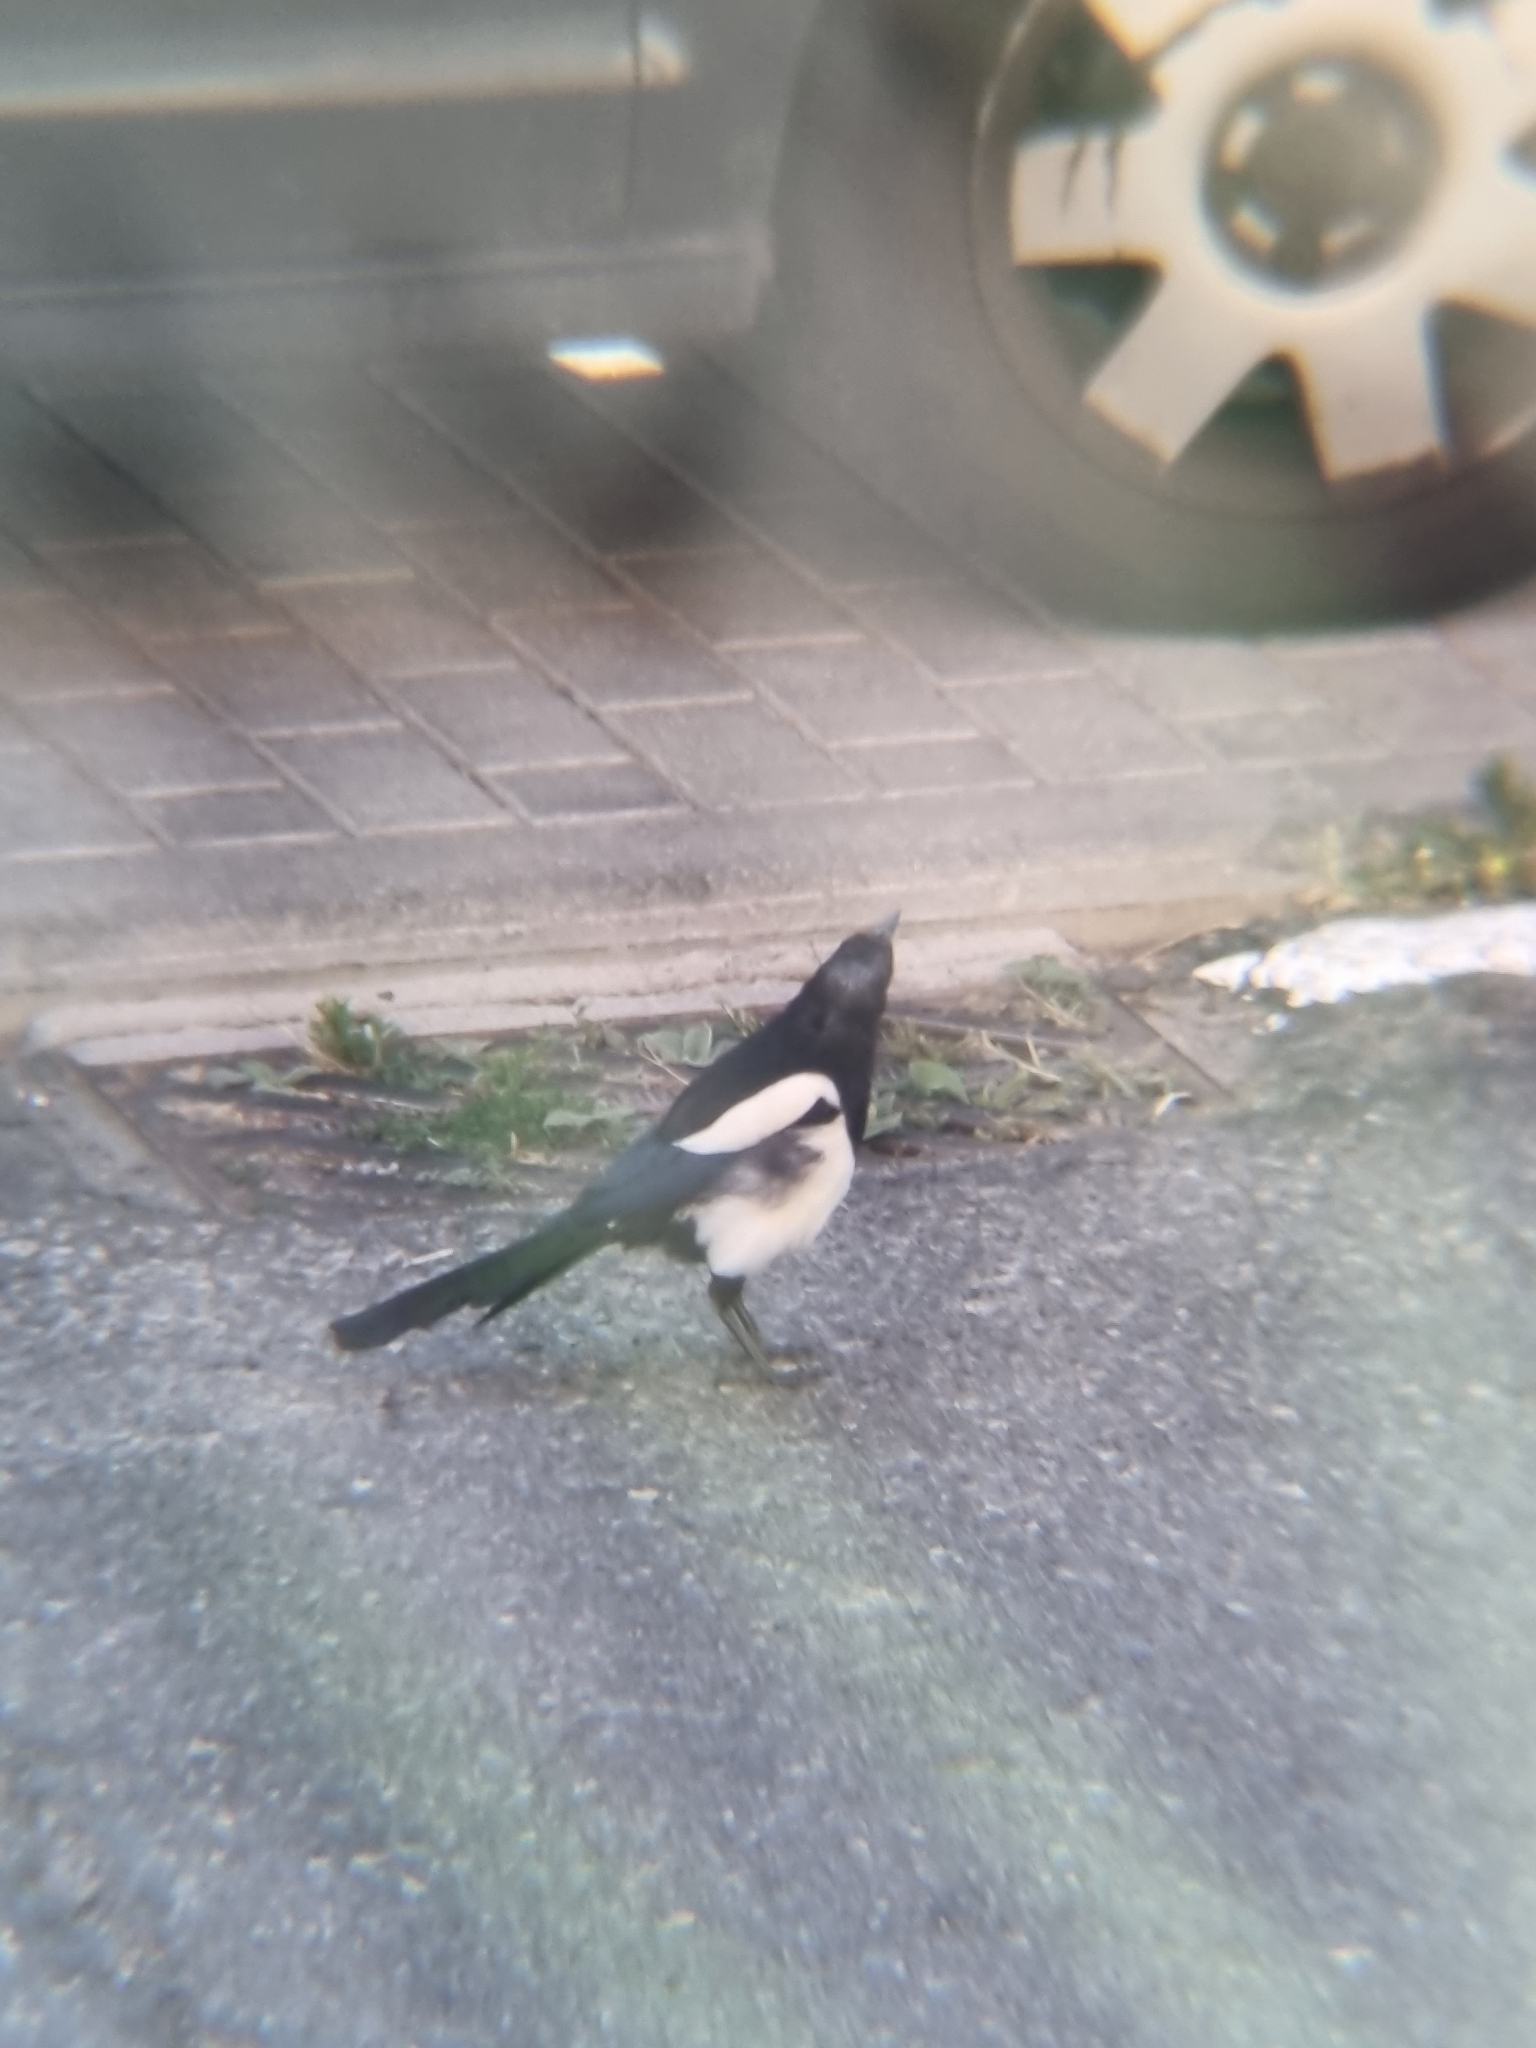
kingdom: Animalia
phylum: Chordata
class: Aves
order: Passeriformes
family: Corvidae
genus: Pica
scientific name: Pica pica
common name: Eurasian magpie
